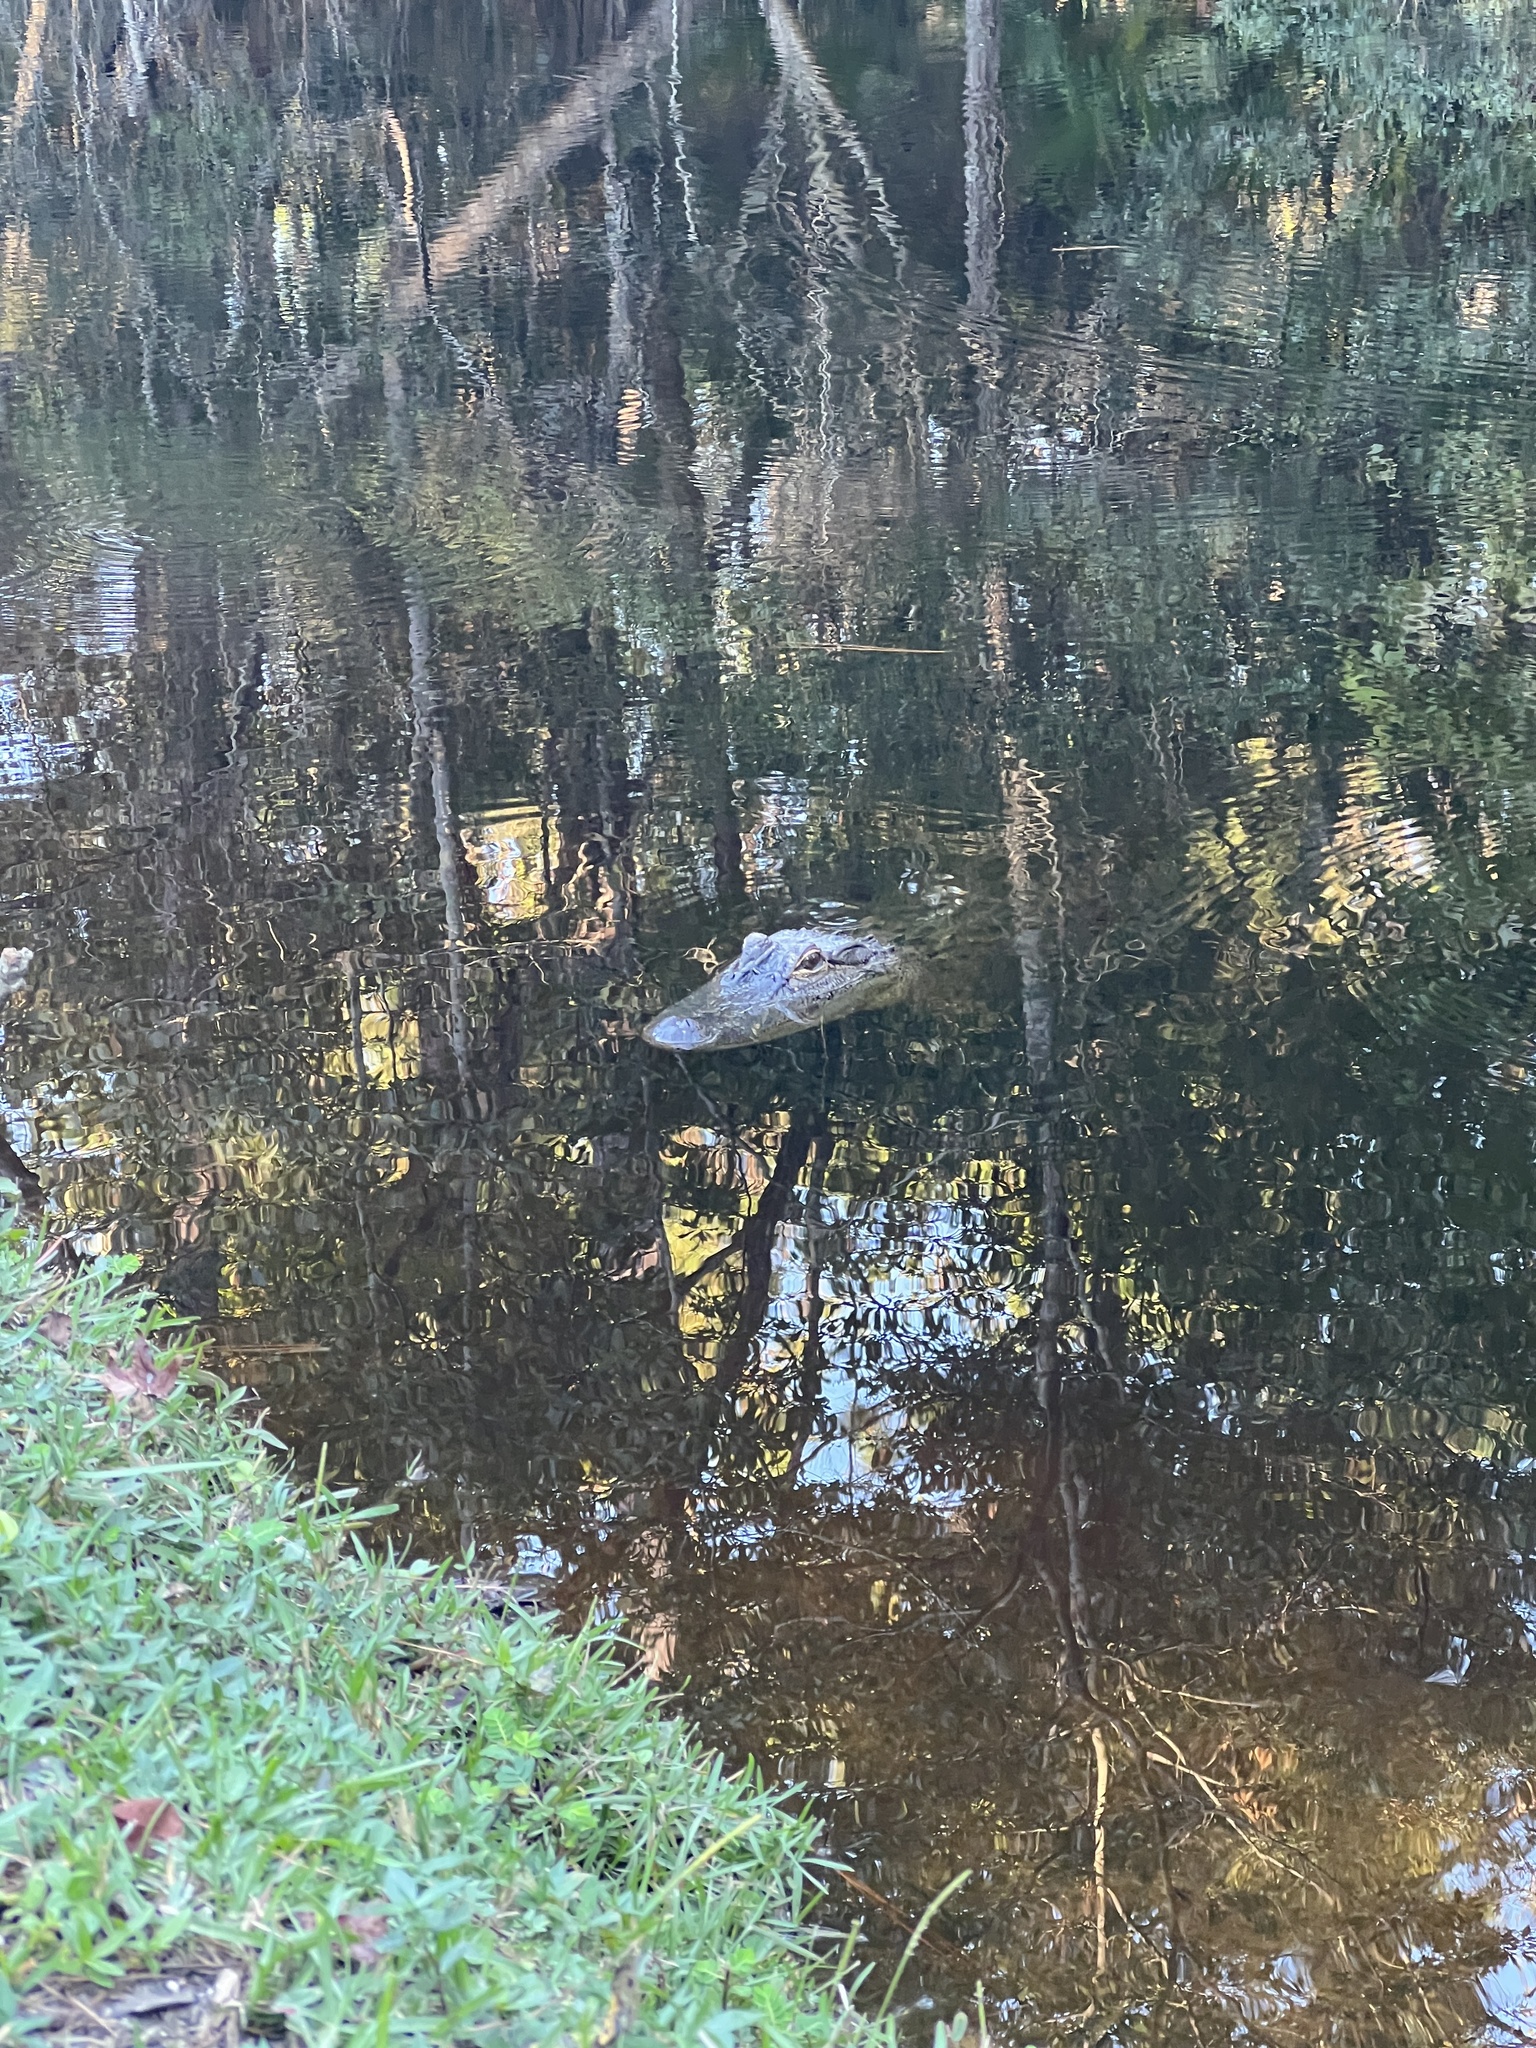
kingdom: Animalia
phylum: Chordata
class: Crocodylia
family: Alligatoridae
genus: Alligator
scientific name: Alligator mississippiensis
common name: American alligator
